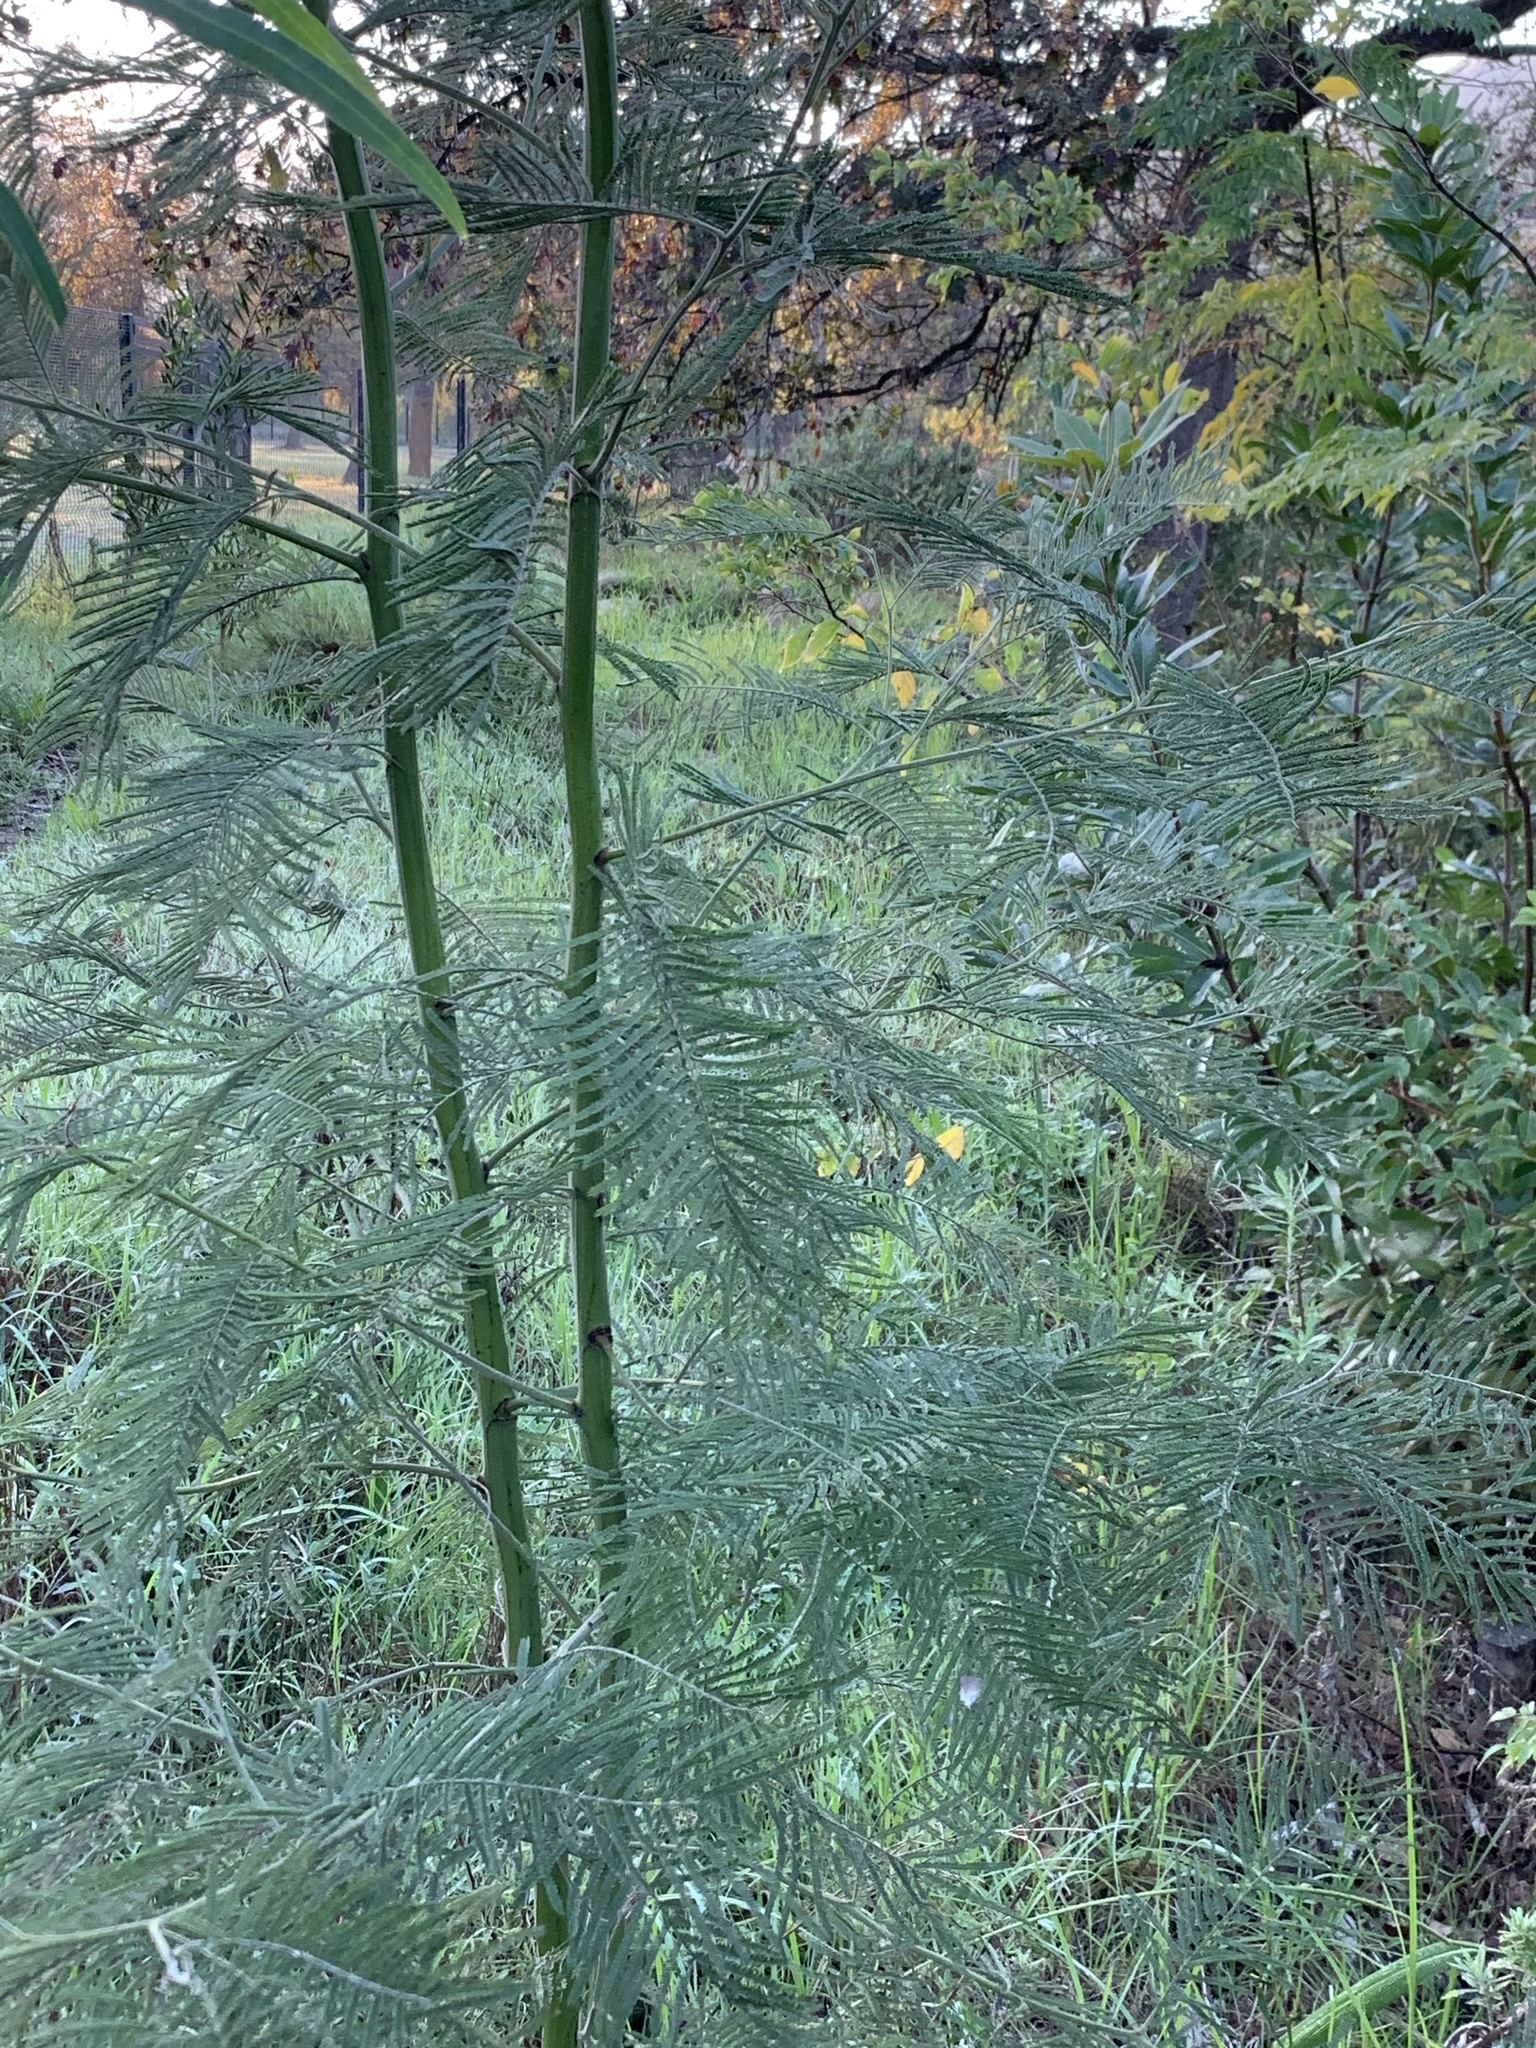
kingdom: Plantae
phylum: Tracheophyta
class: Magnoliopsida
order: Fabales
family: Fabaceae
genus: Acacia
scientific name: Acacia mearnsii
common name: Black wattle
